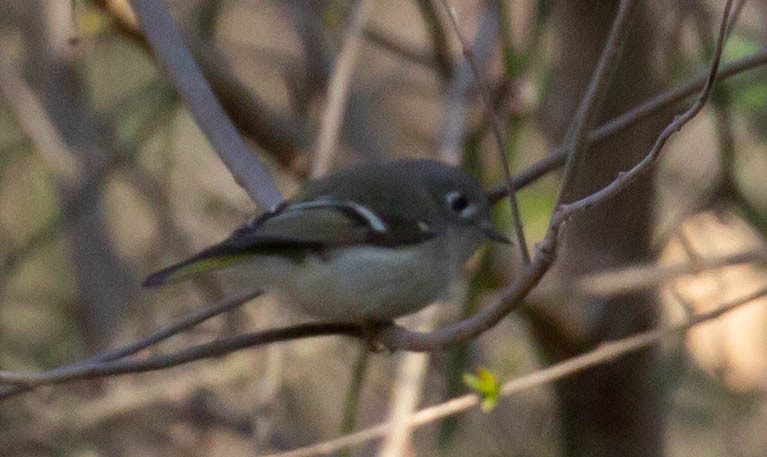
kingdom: Animalia
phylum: Chordata
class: Aves
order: Passeriformes
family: Regulidae
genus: Regulus
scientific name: Regulus calendula
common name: Ruby-crowned kinglet
